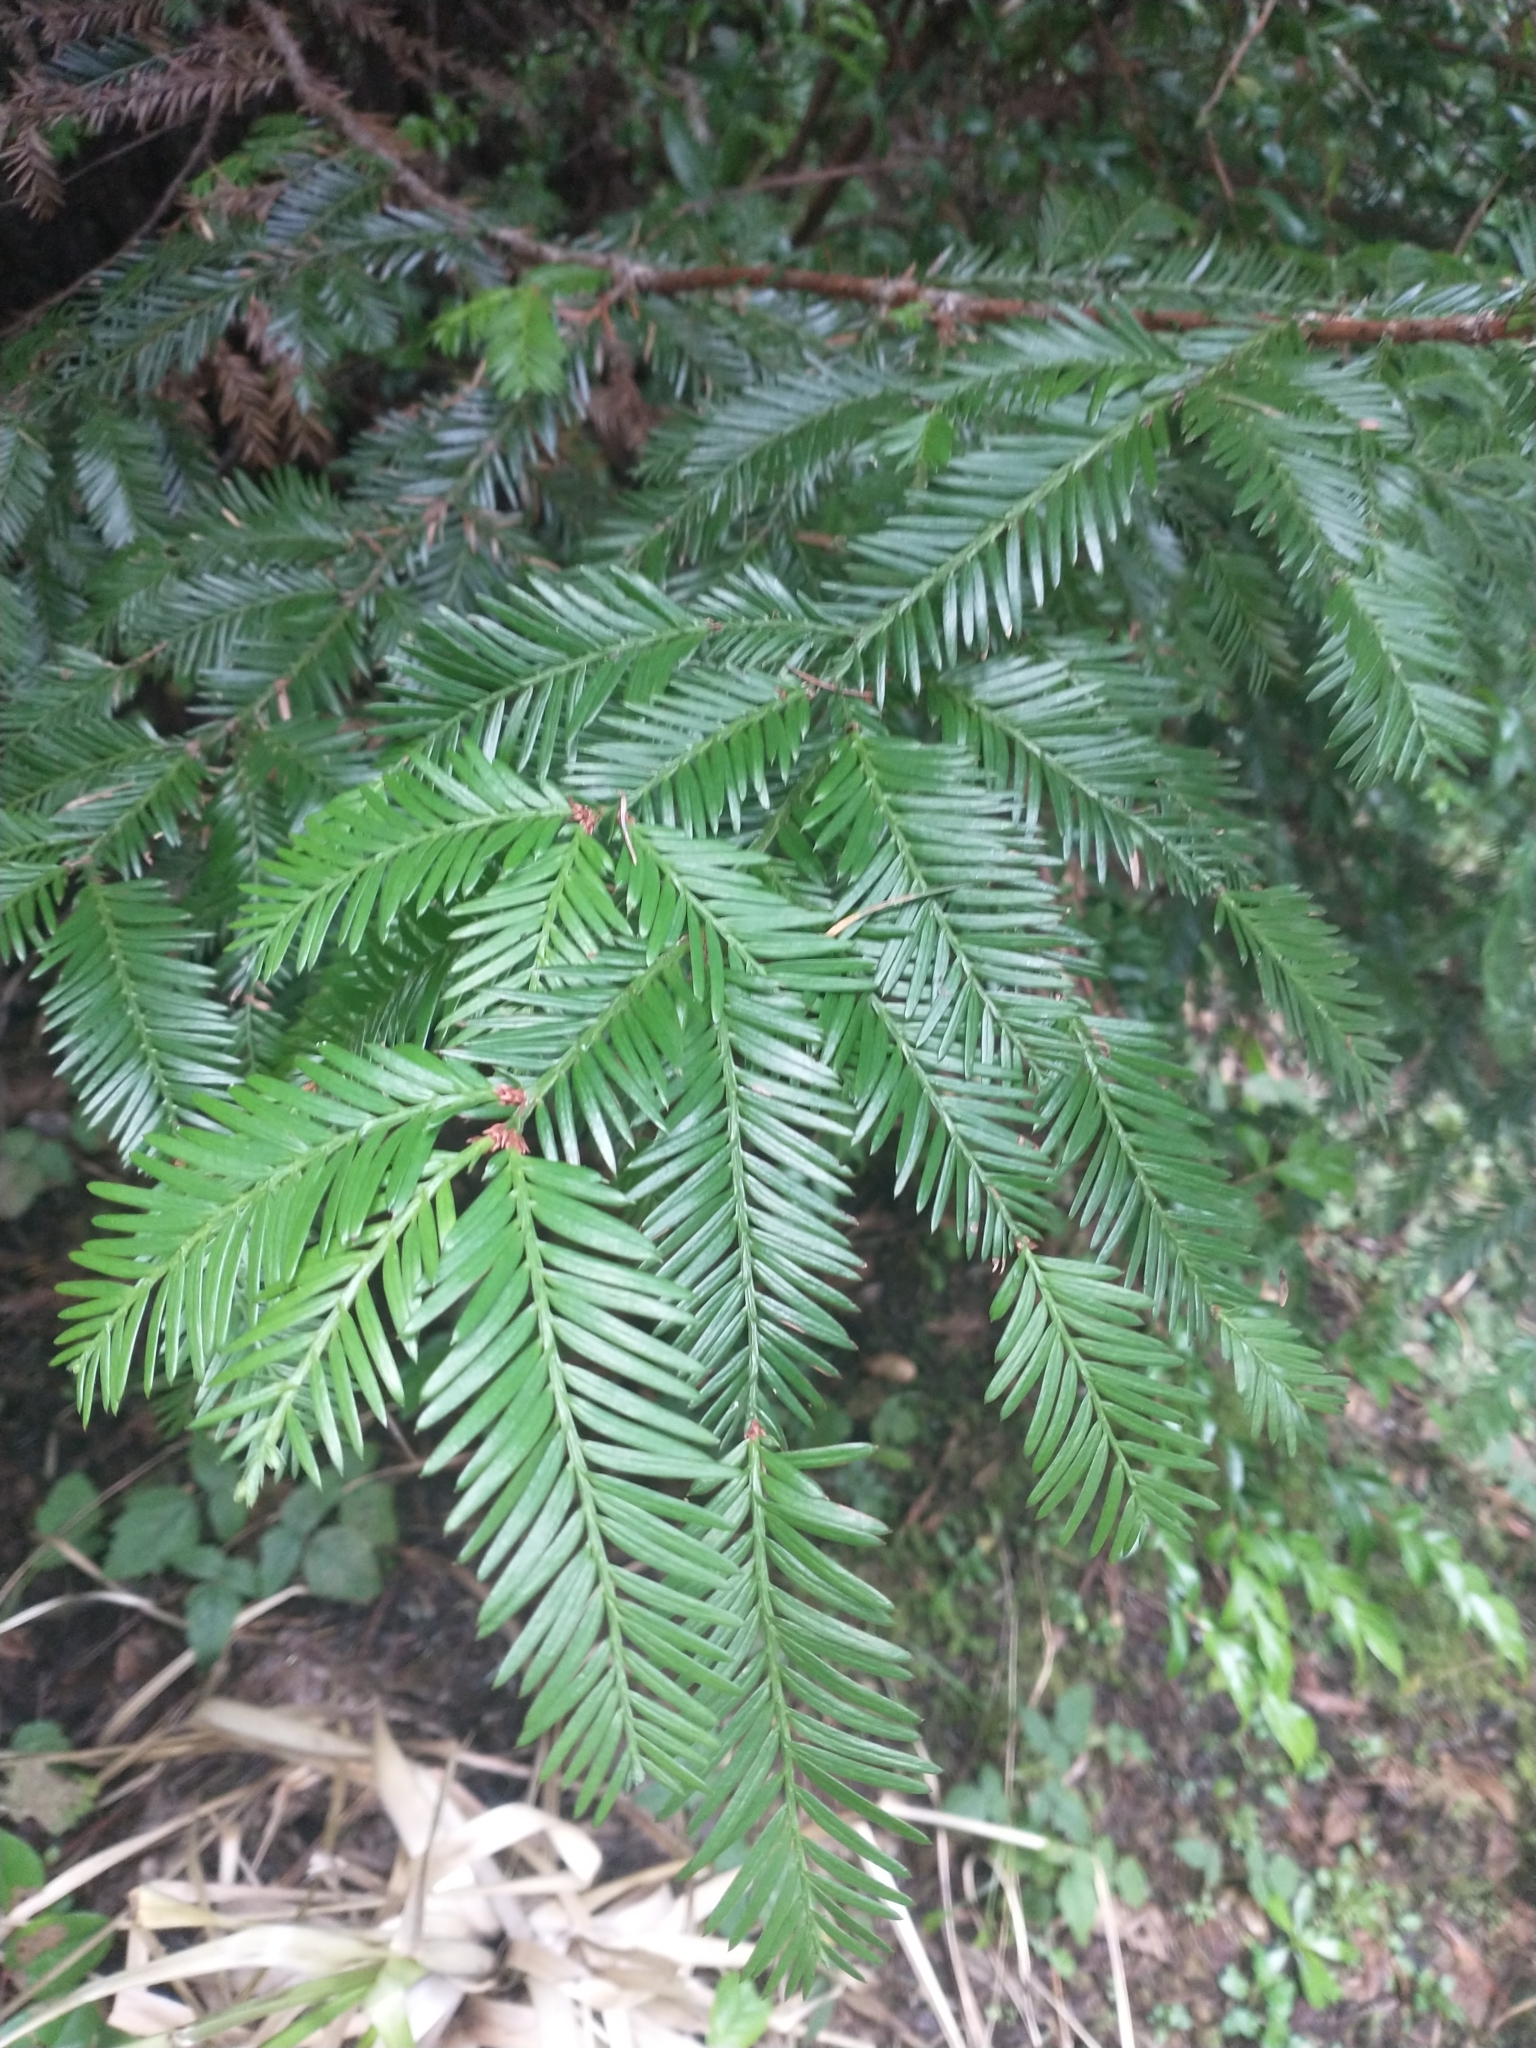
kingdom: Plantae
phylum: Tracheophyta
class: Pinopsida
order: Pinales
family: Cupressaceae
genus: Sequoia
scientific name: Sequoia sempervirens
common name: Coast redwood
